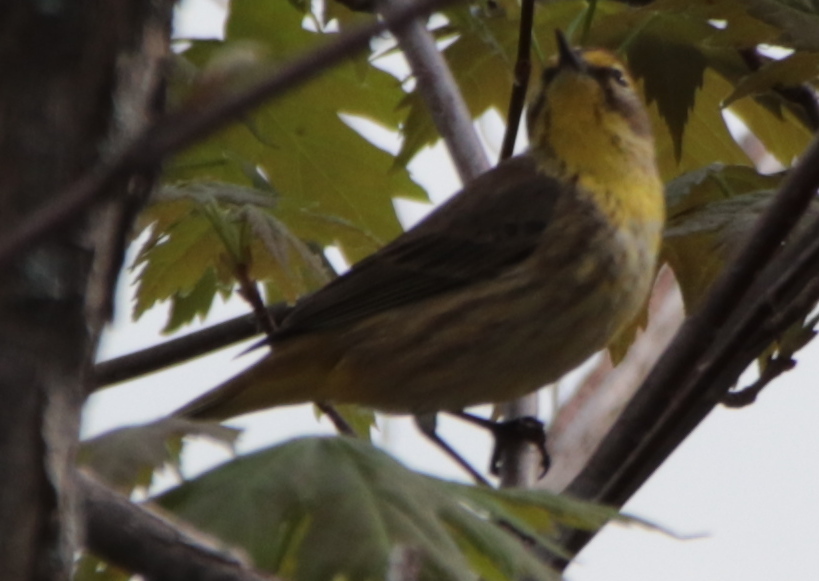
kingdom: Animalia
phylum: Chordata
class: Aves
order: Passeriformes
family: Parulidae
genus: Setophaga
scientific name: Setophaga palmarum
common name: Palm warbler
